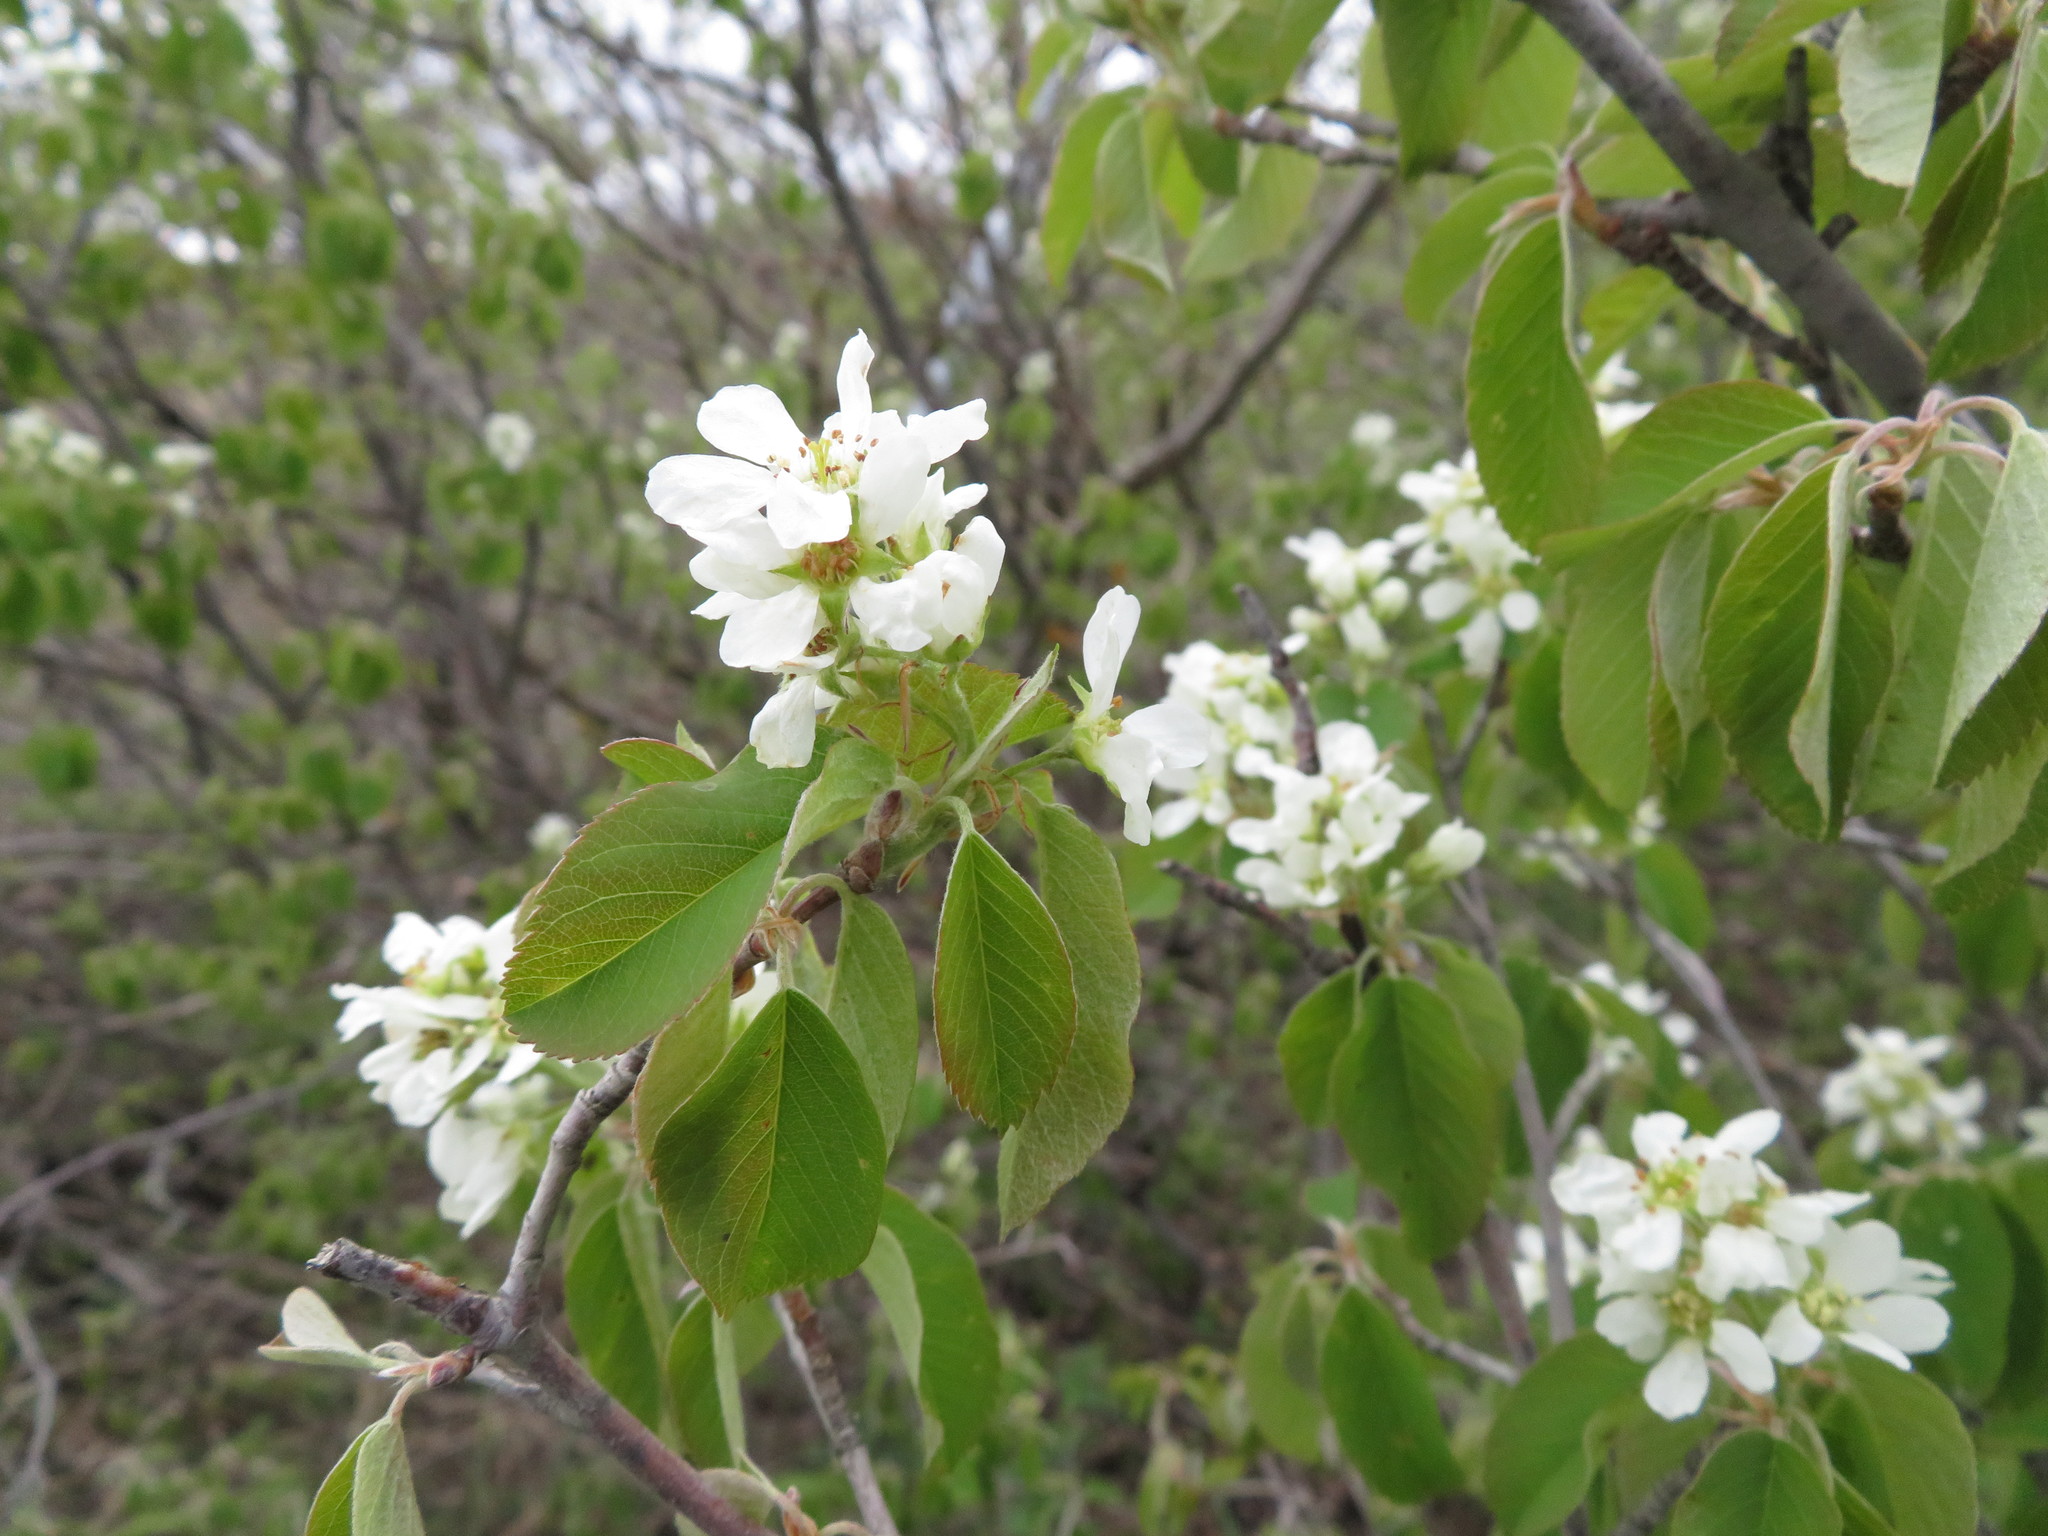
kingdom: Plantae
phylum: Tracheophyta
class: Magnoliopsida
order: Rosales
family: Rosaceae
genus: Amelanchier
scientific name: Amelanchier alnifolia
